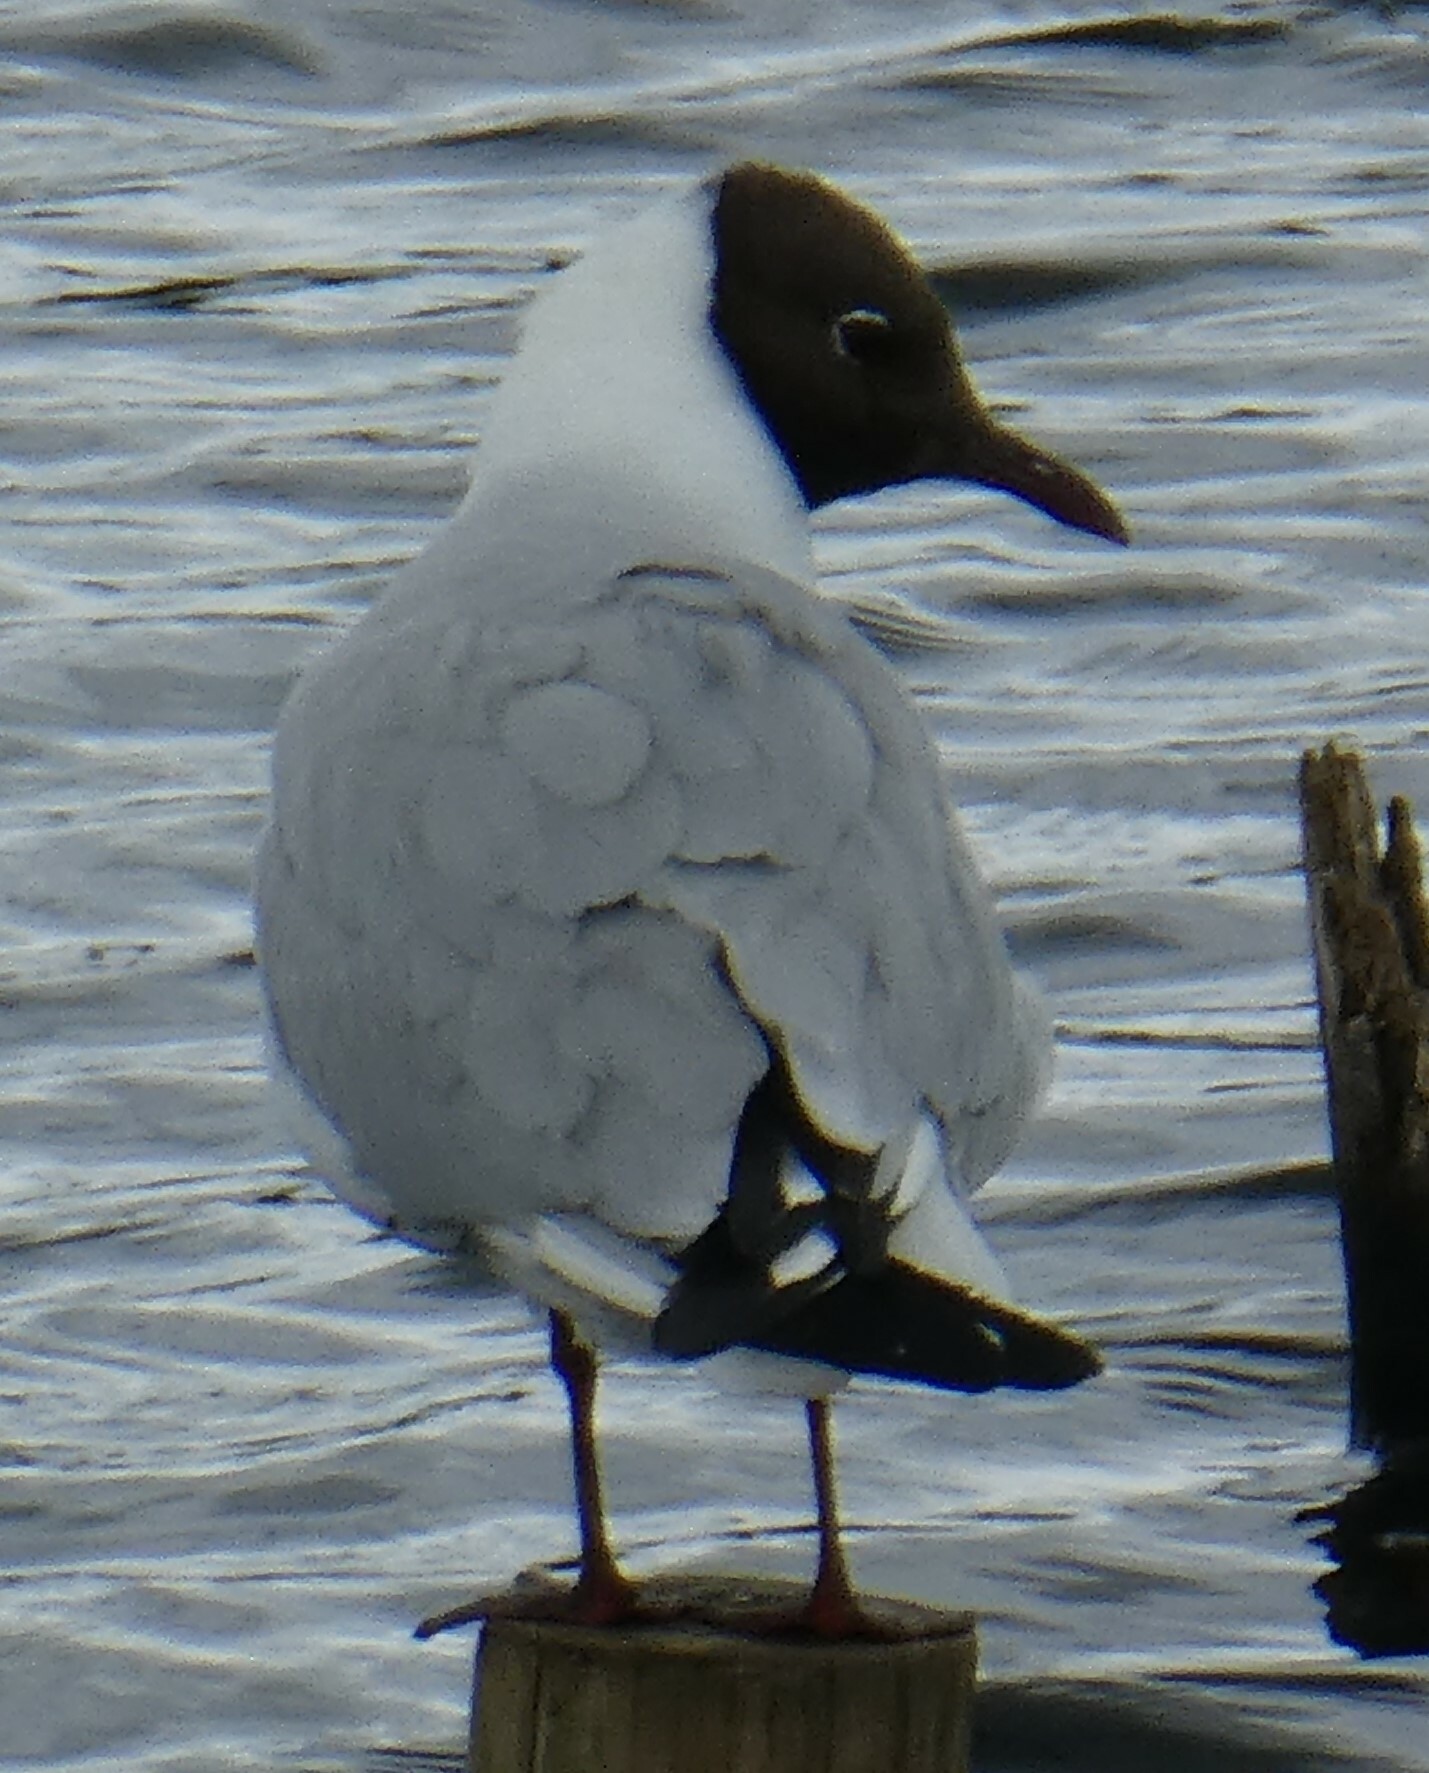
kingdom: Animalia
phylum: Chordata
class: Aves
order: Charadriiformes
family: Laridae
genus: Chroicocephalus
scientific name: Chroicocephalus ridibundus
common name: Black-headed gull
